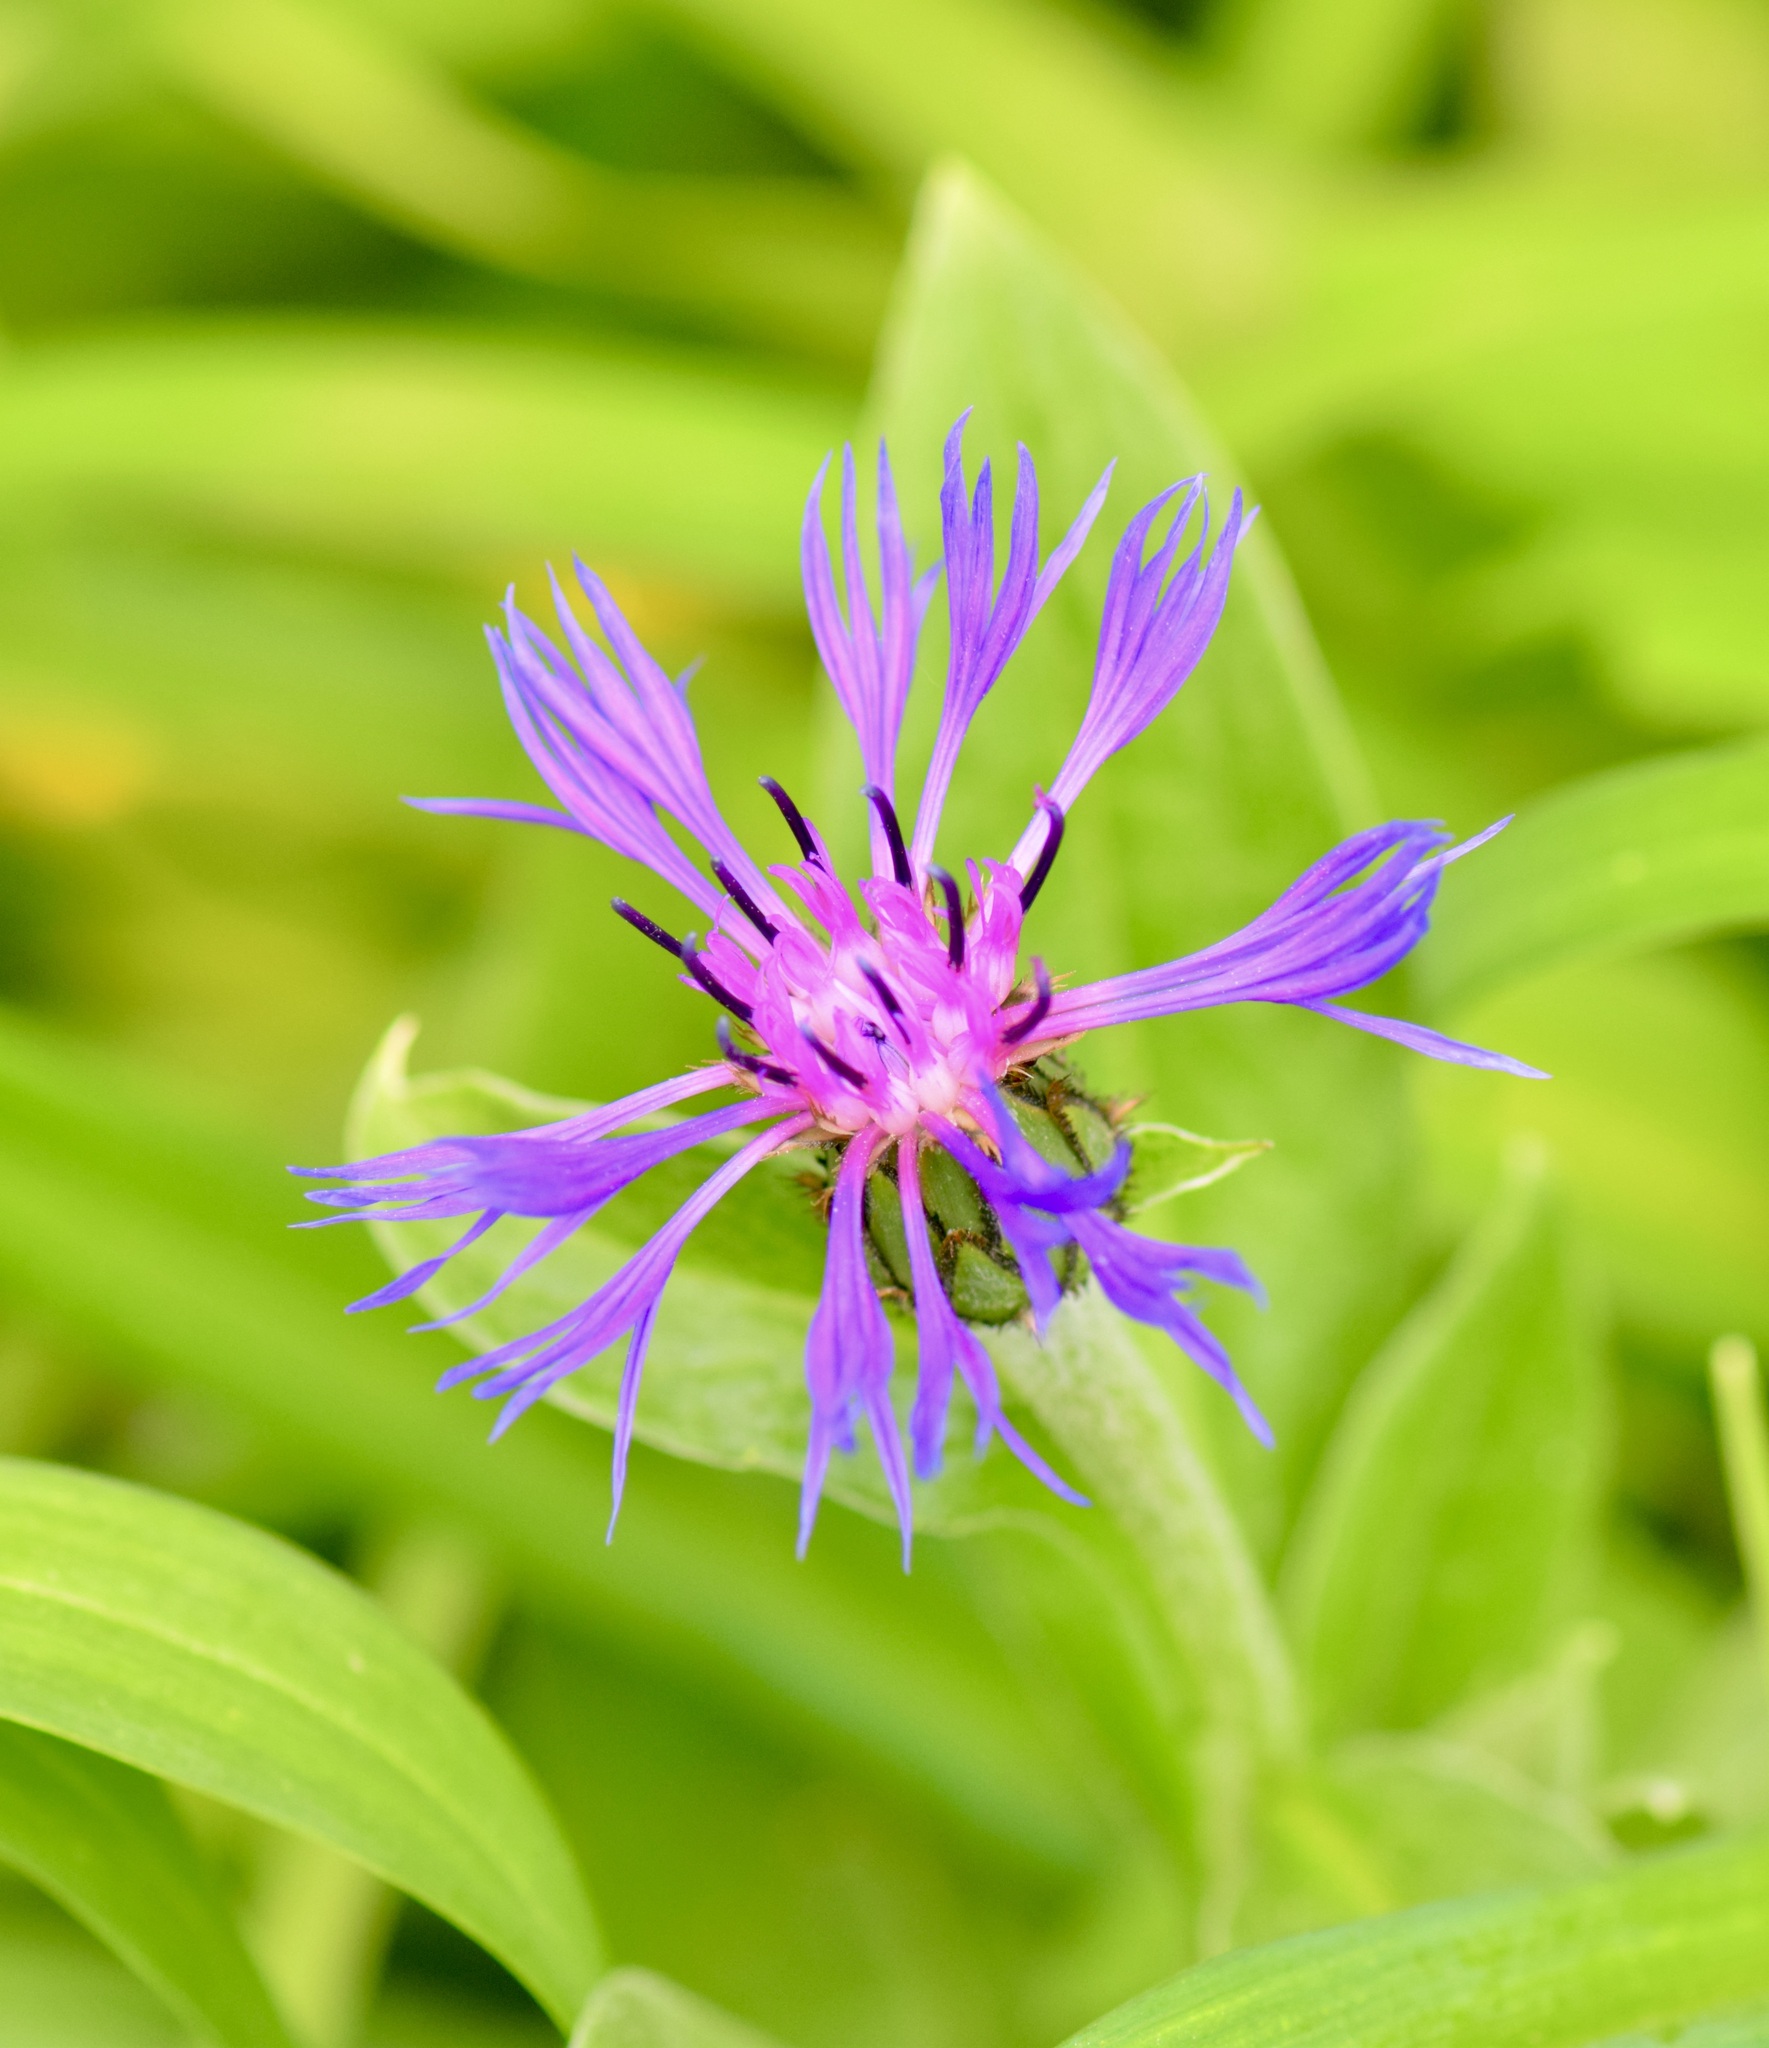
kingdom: Plantae
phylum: Tracheophyta
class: Magnoliopsida
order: Asterales
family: Asteraceae
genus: Centaurea
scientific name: Centaurea montana
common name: Perennial cornflower
